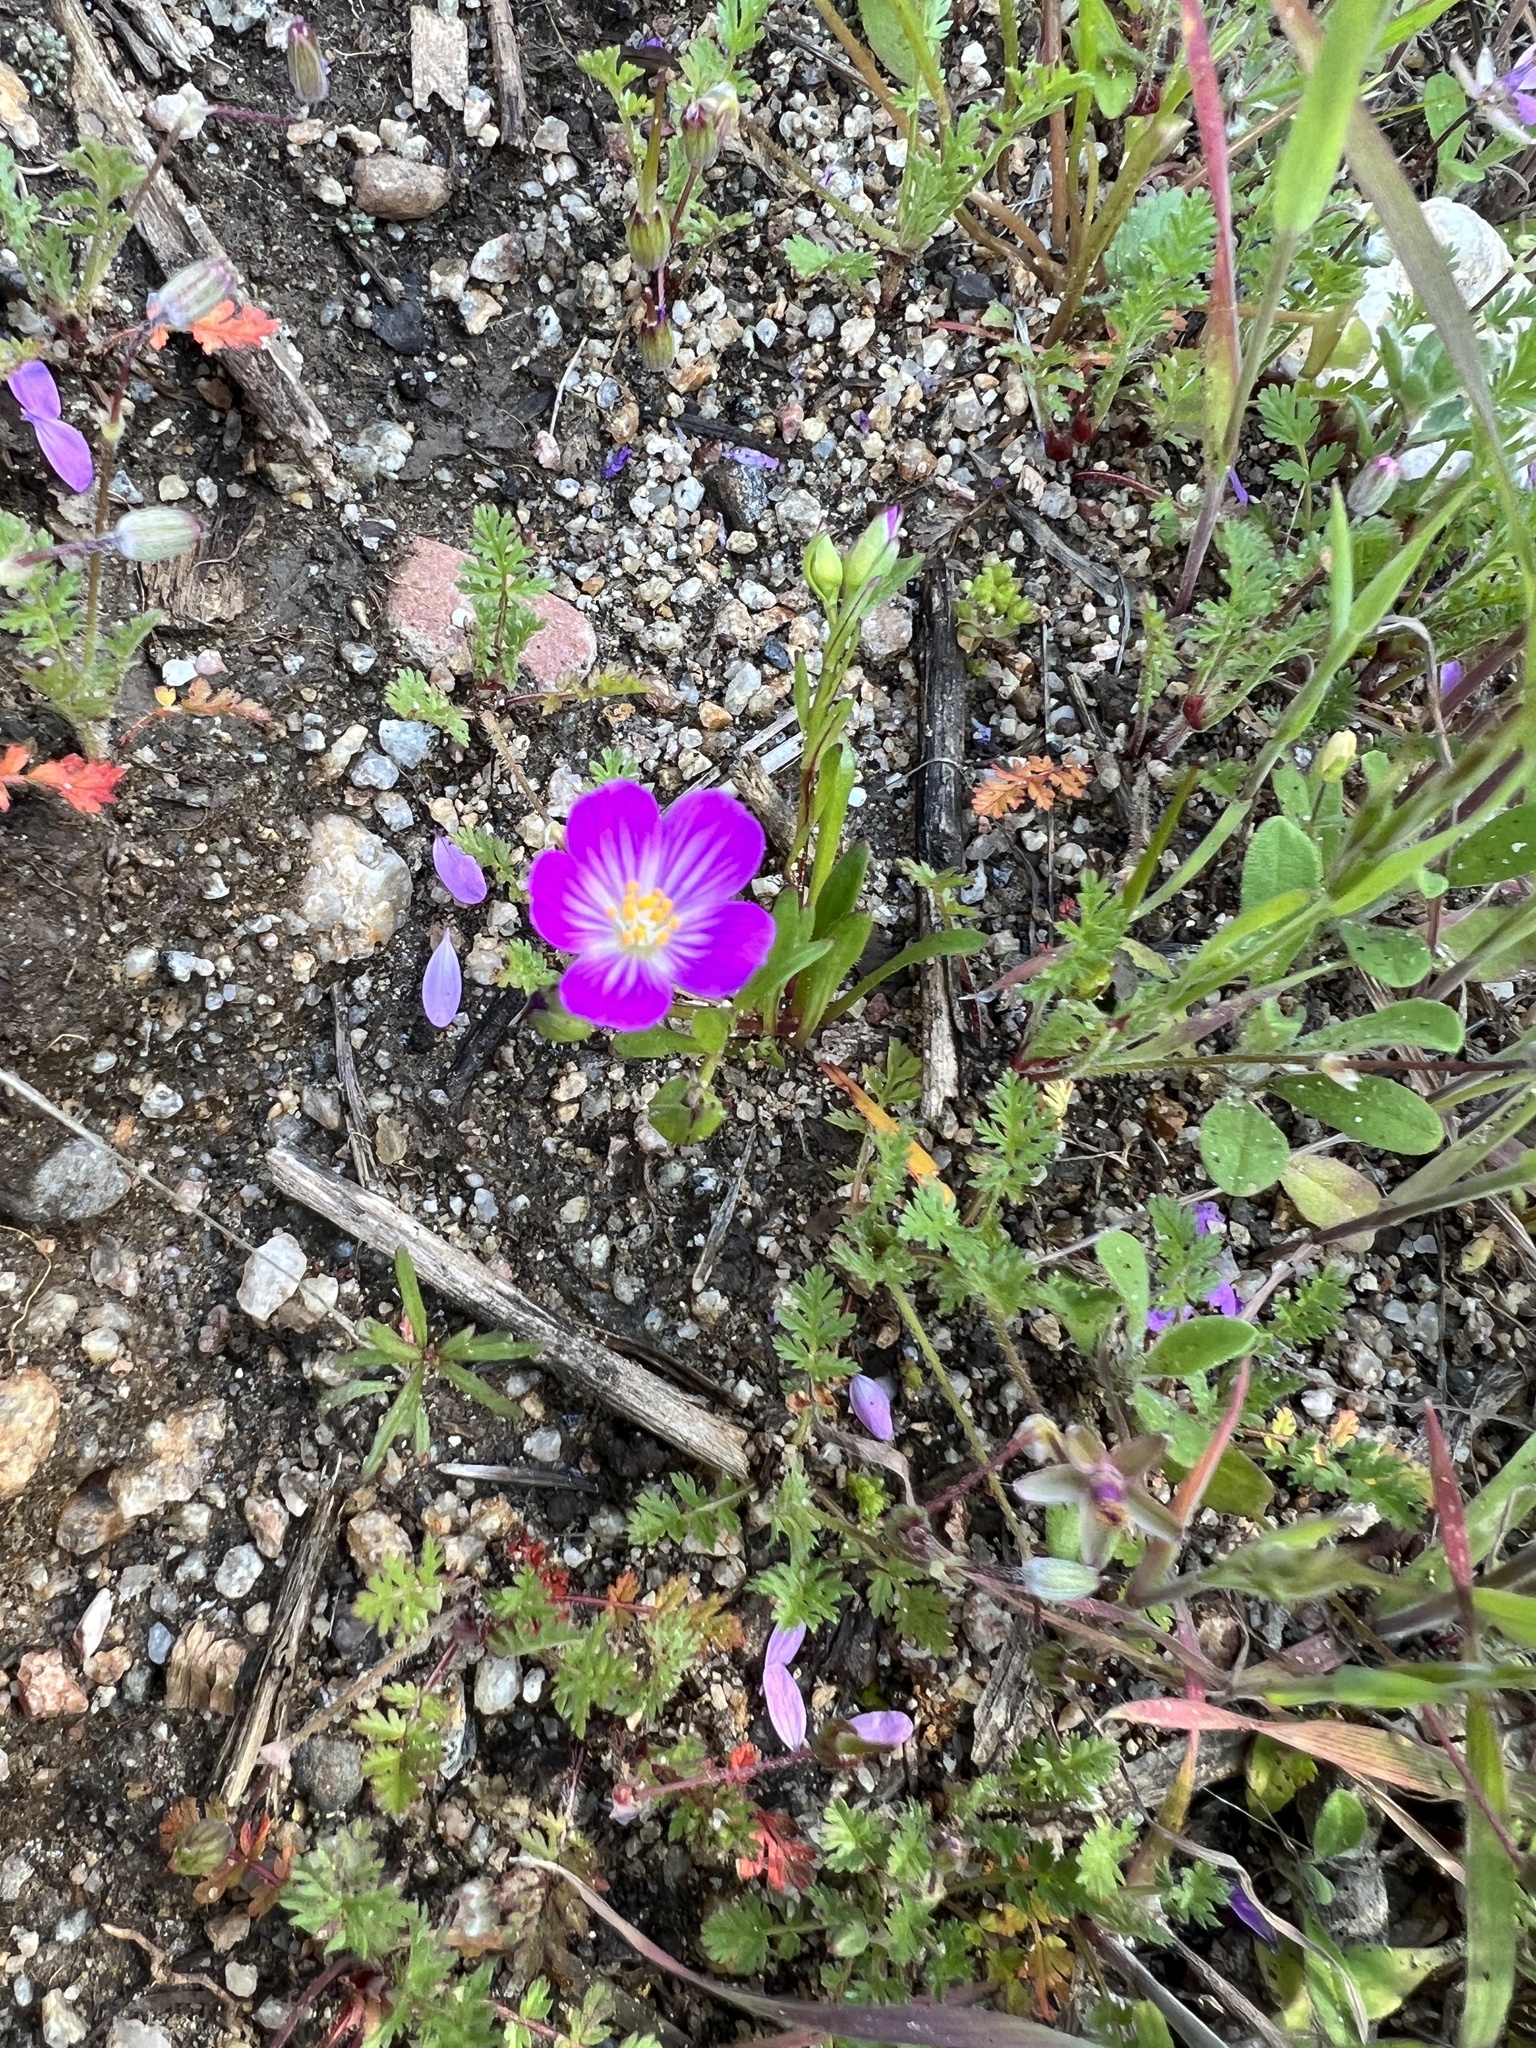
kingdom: Plantae
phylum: Tracheophyta
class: Magnoliopsida
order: Caryophyllales
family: Montiaceae
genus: Calandrinia
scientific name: Calandrinia menziesii
